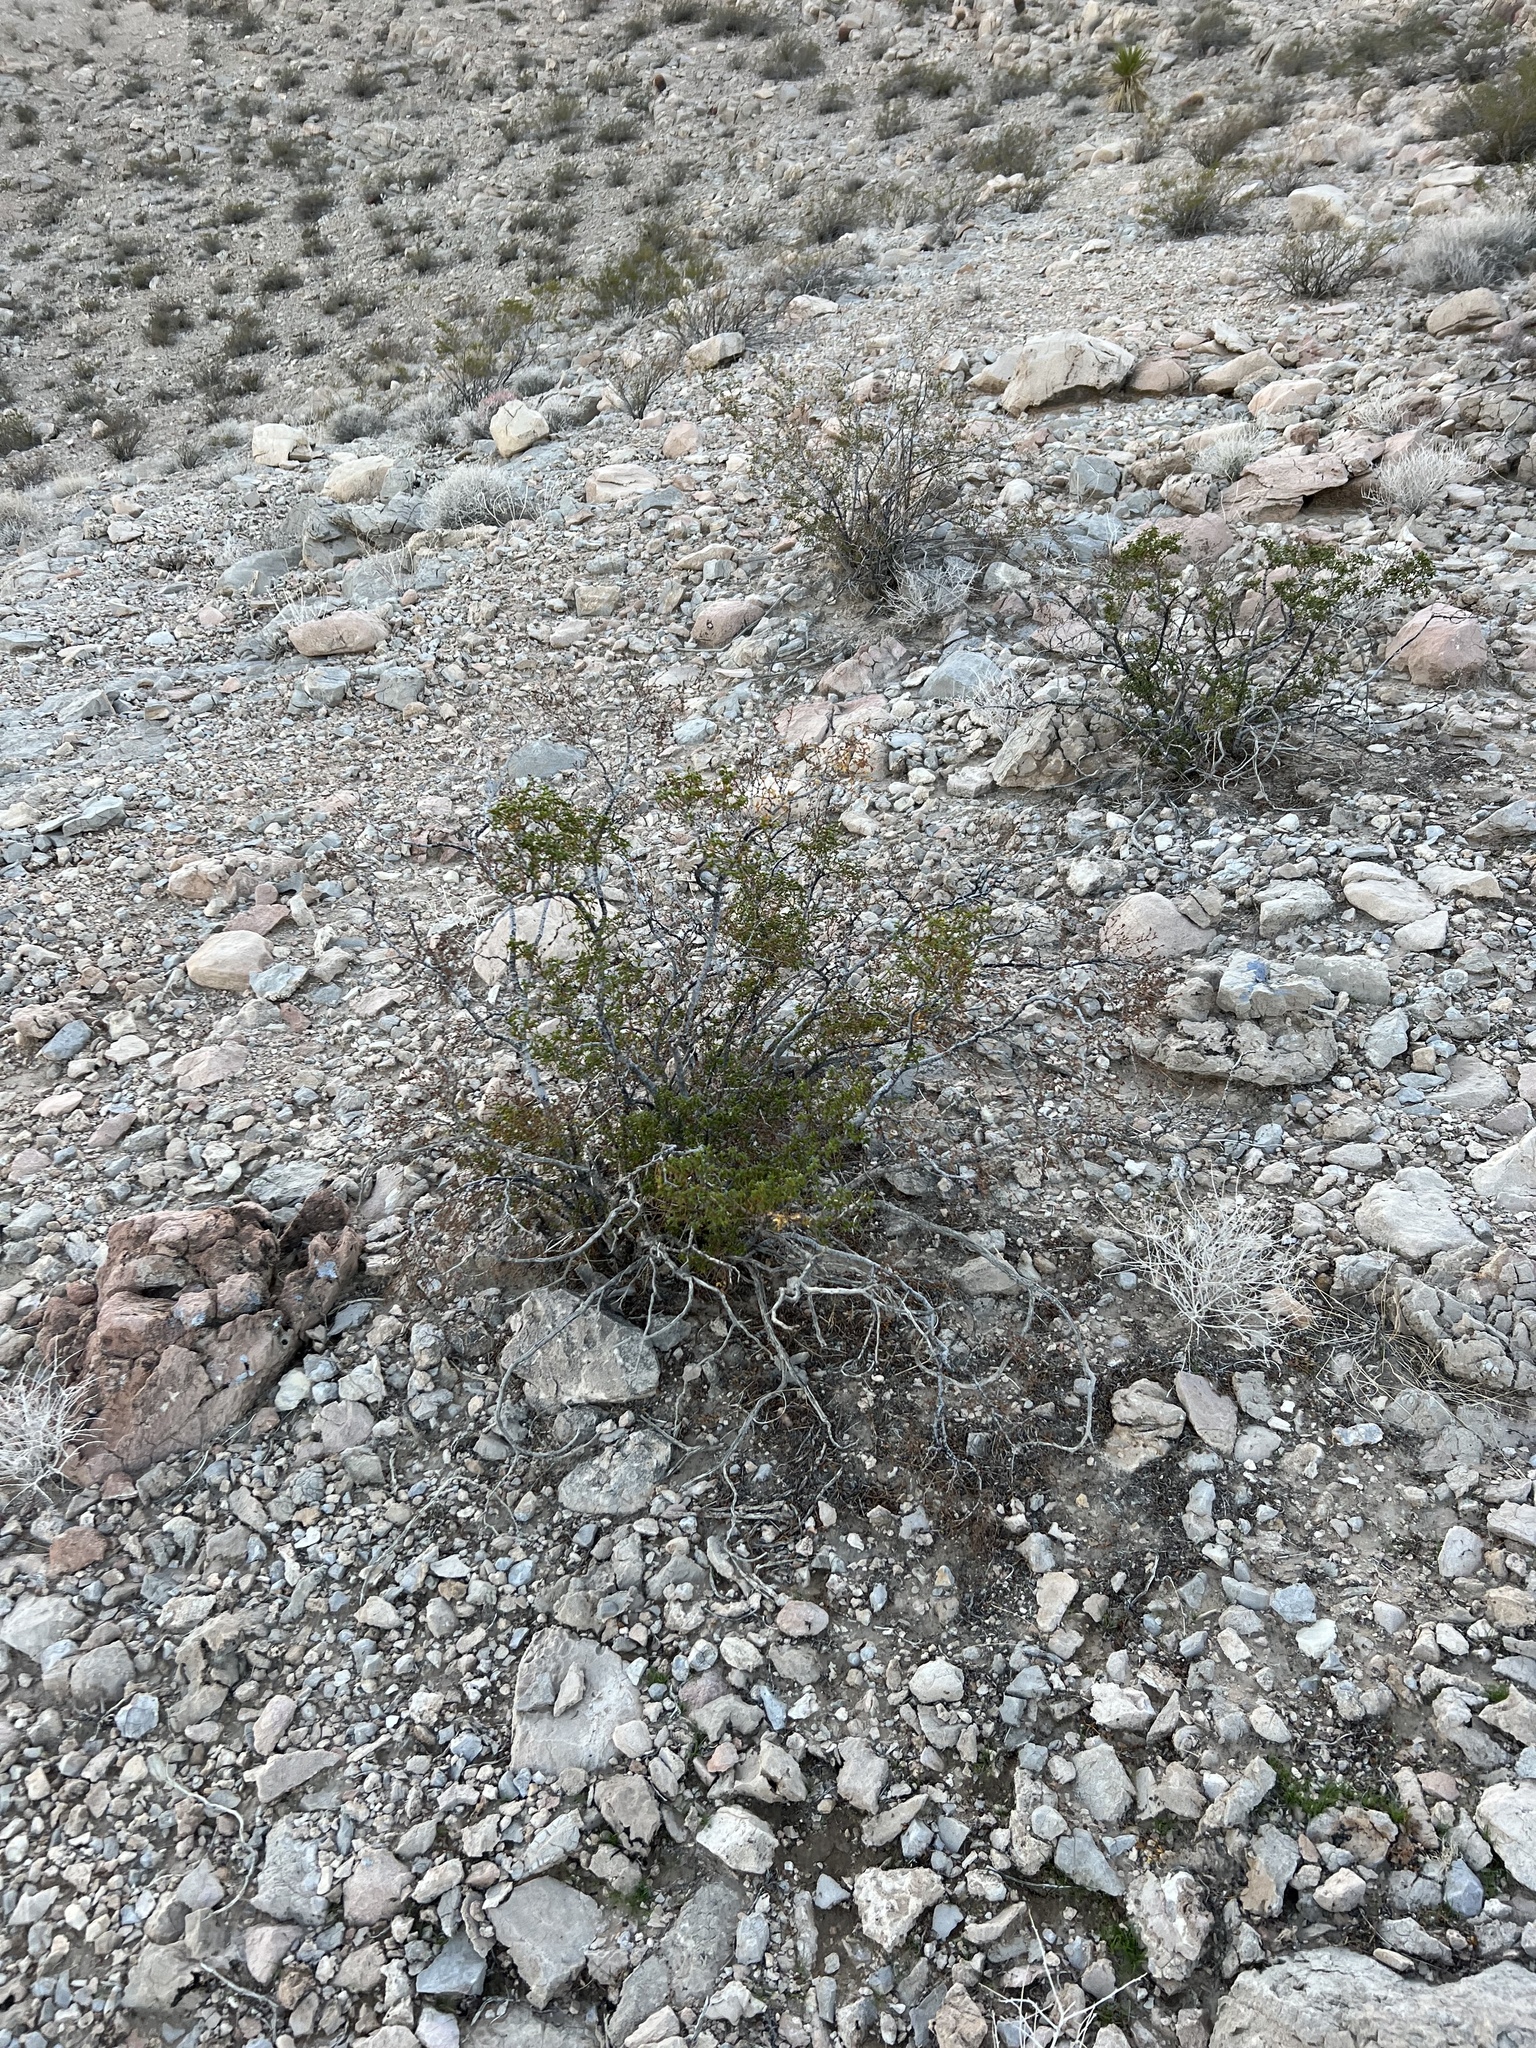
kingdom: Plantae
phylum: Tracheophyta
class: Magnoliopsida
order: Zygophyllales
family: Zygophyllaceae
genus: Larrea
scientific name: Larrea tridentata
